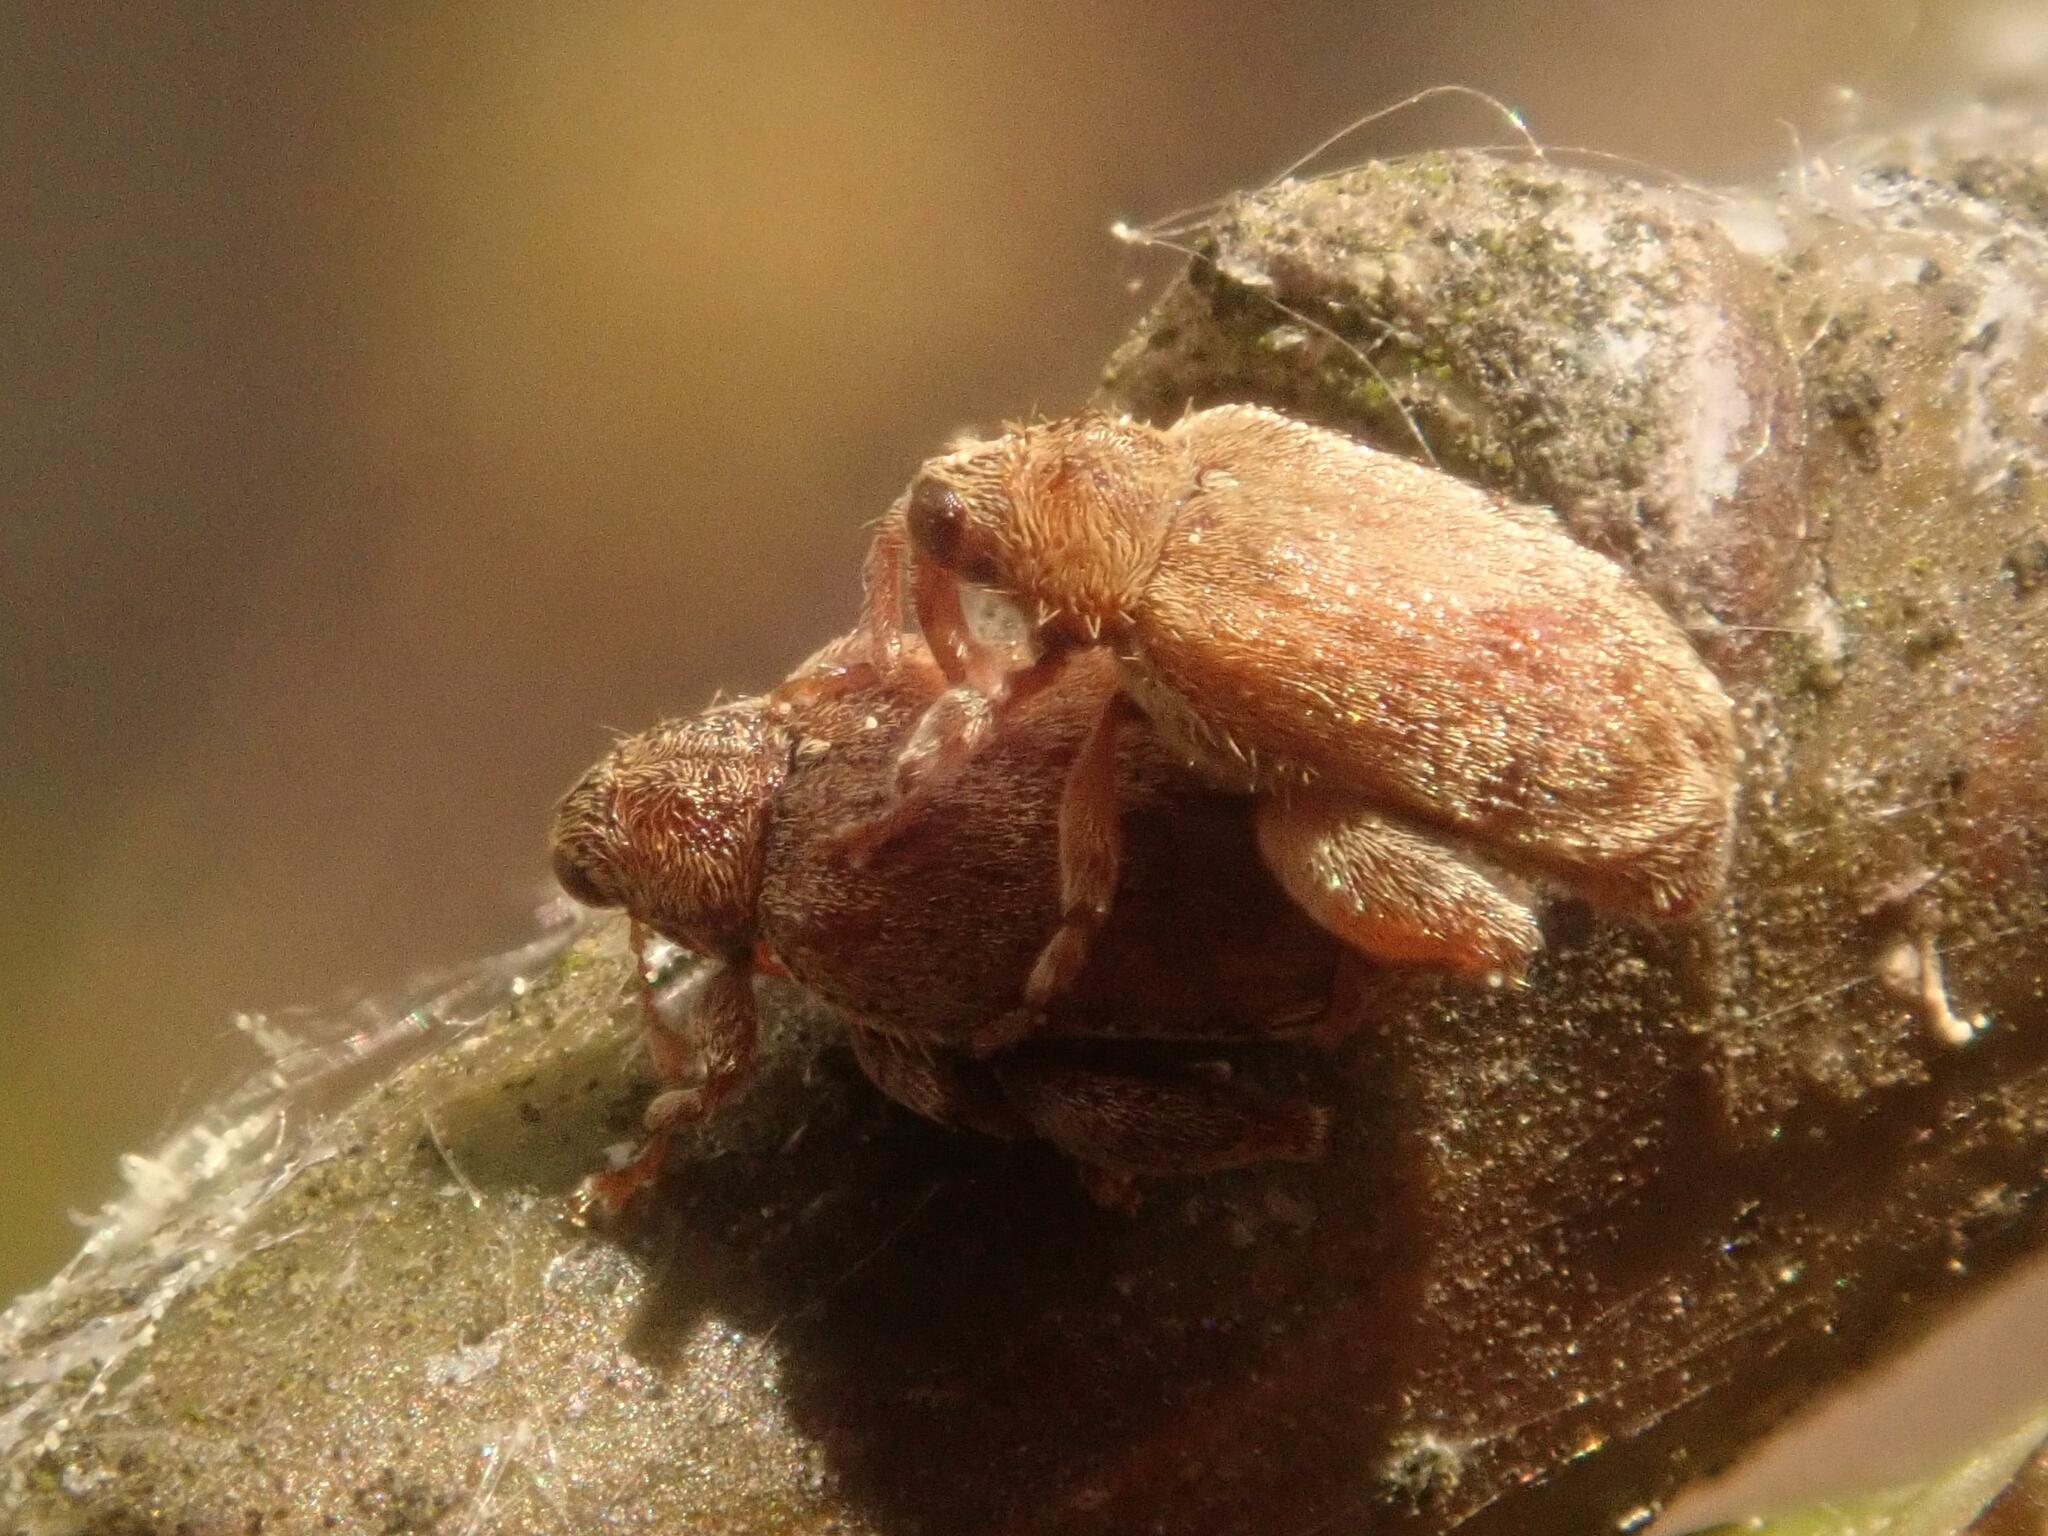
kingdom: Animalia
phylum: Arthropoda
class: Insecta
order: Coleoptera
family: Curculionidae
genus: Orchestes
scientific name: Orchestes quercus
